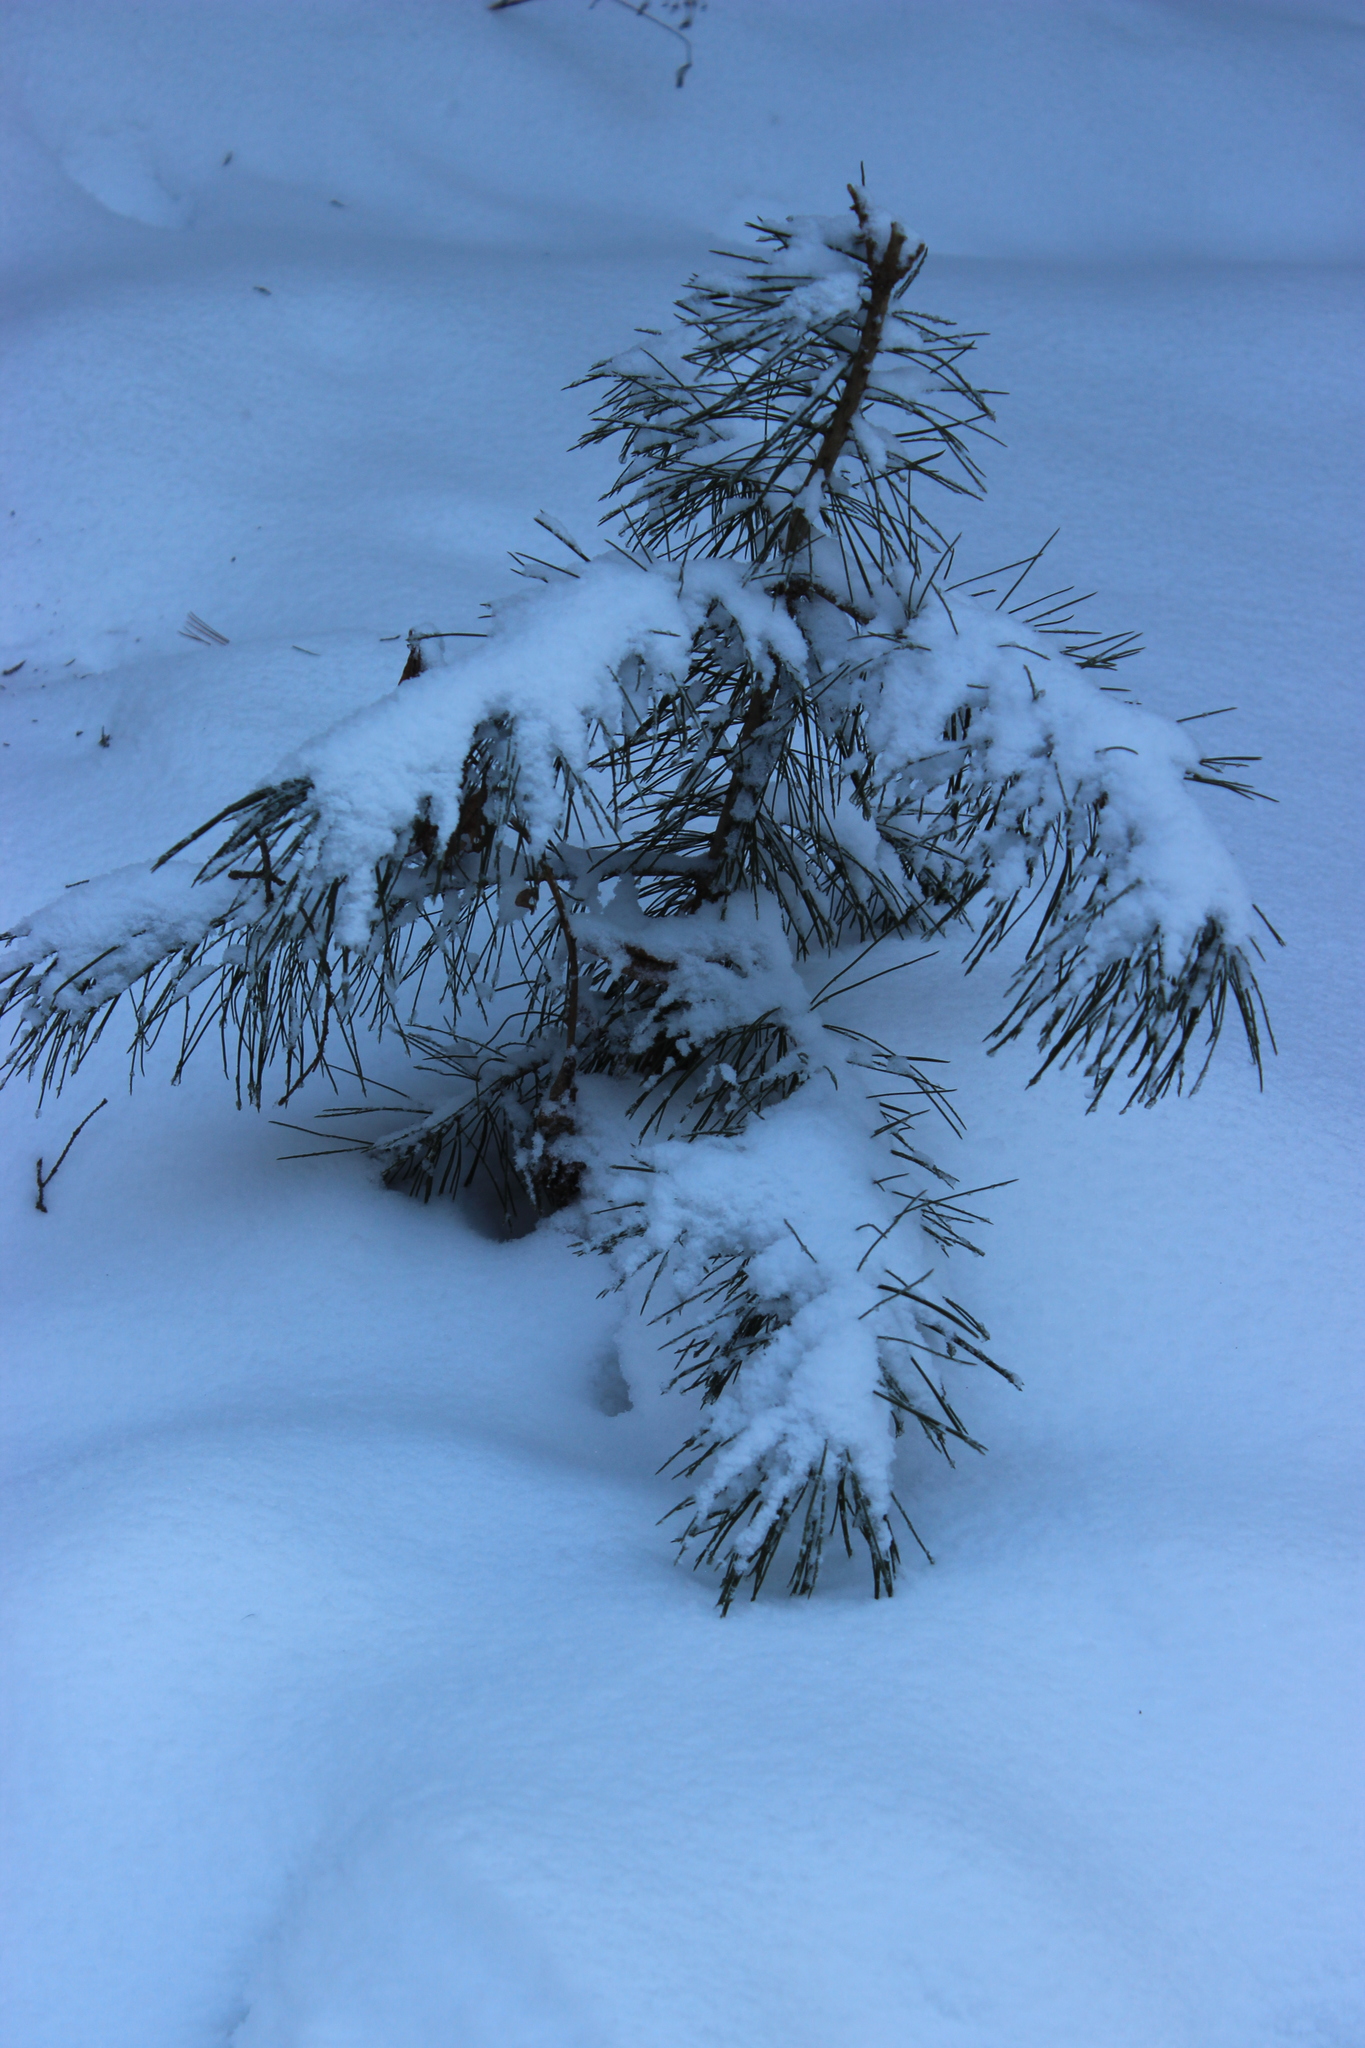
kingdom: Plantae
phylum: Tracheophyta
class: Pinopsida
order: Pinales
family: Pinaceae
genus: Pinus
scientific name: Pinus sibirica
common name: Siberian pine
